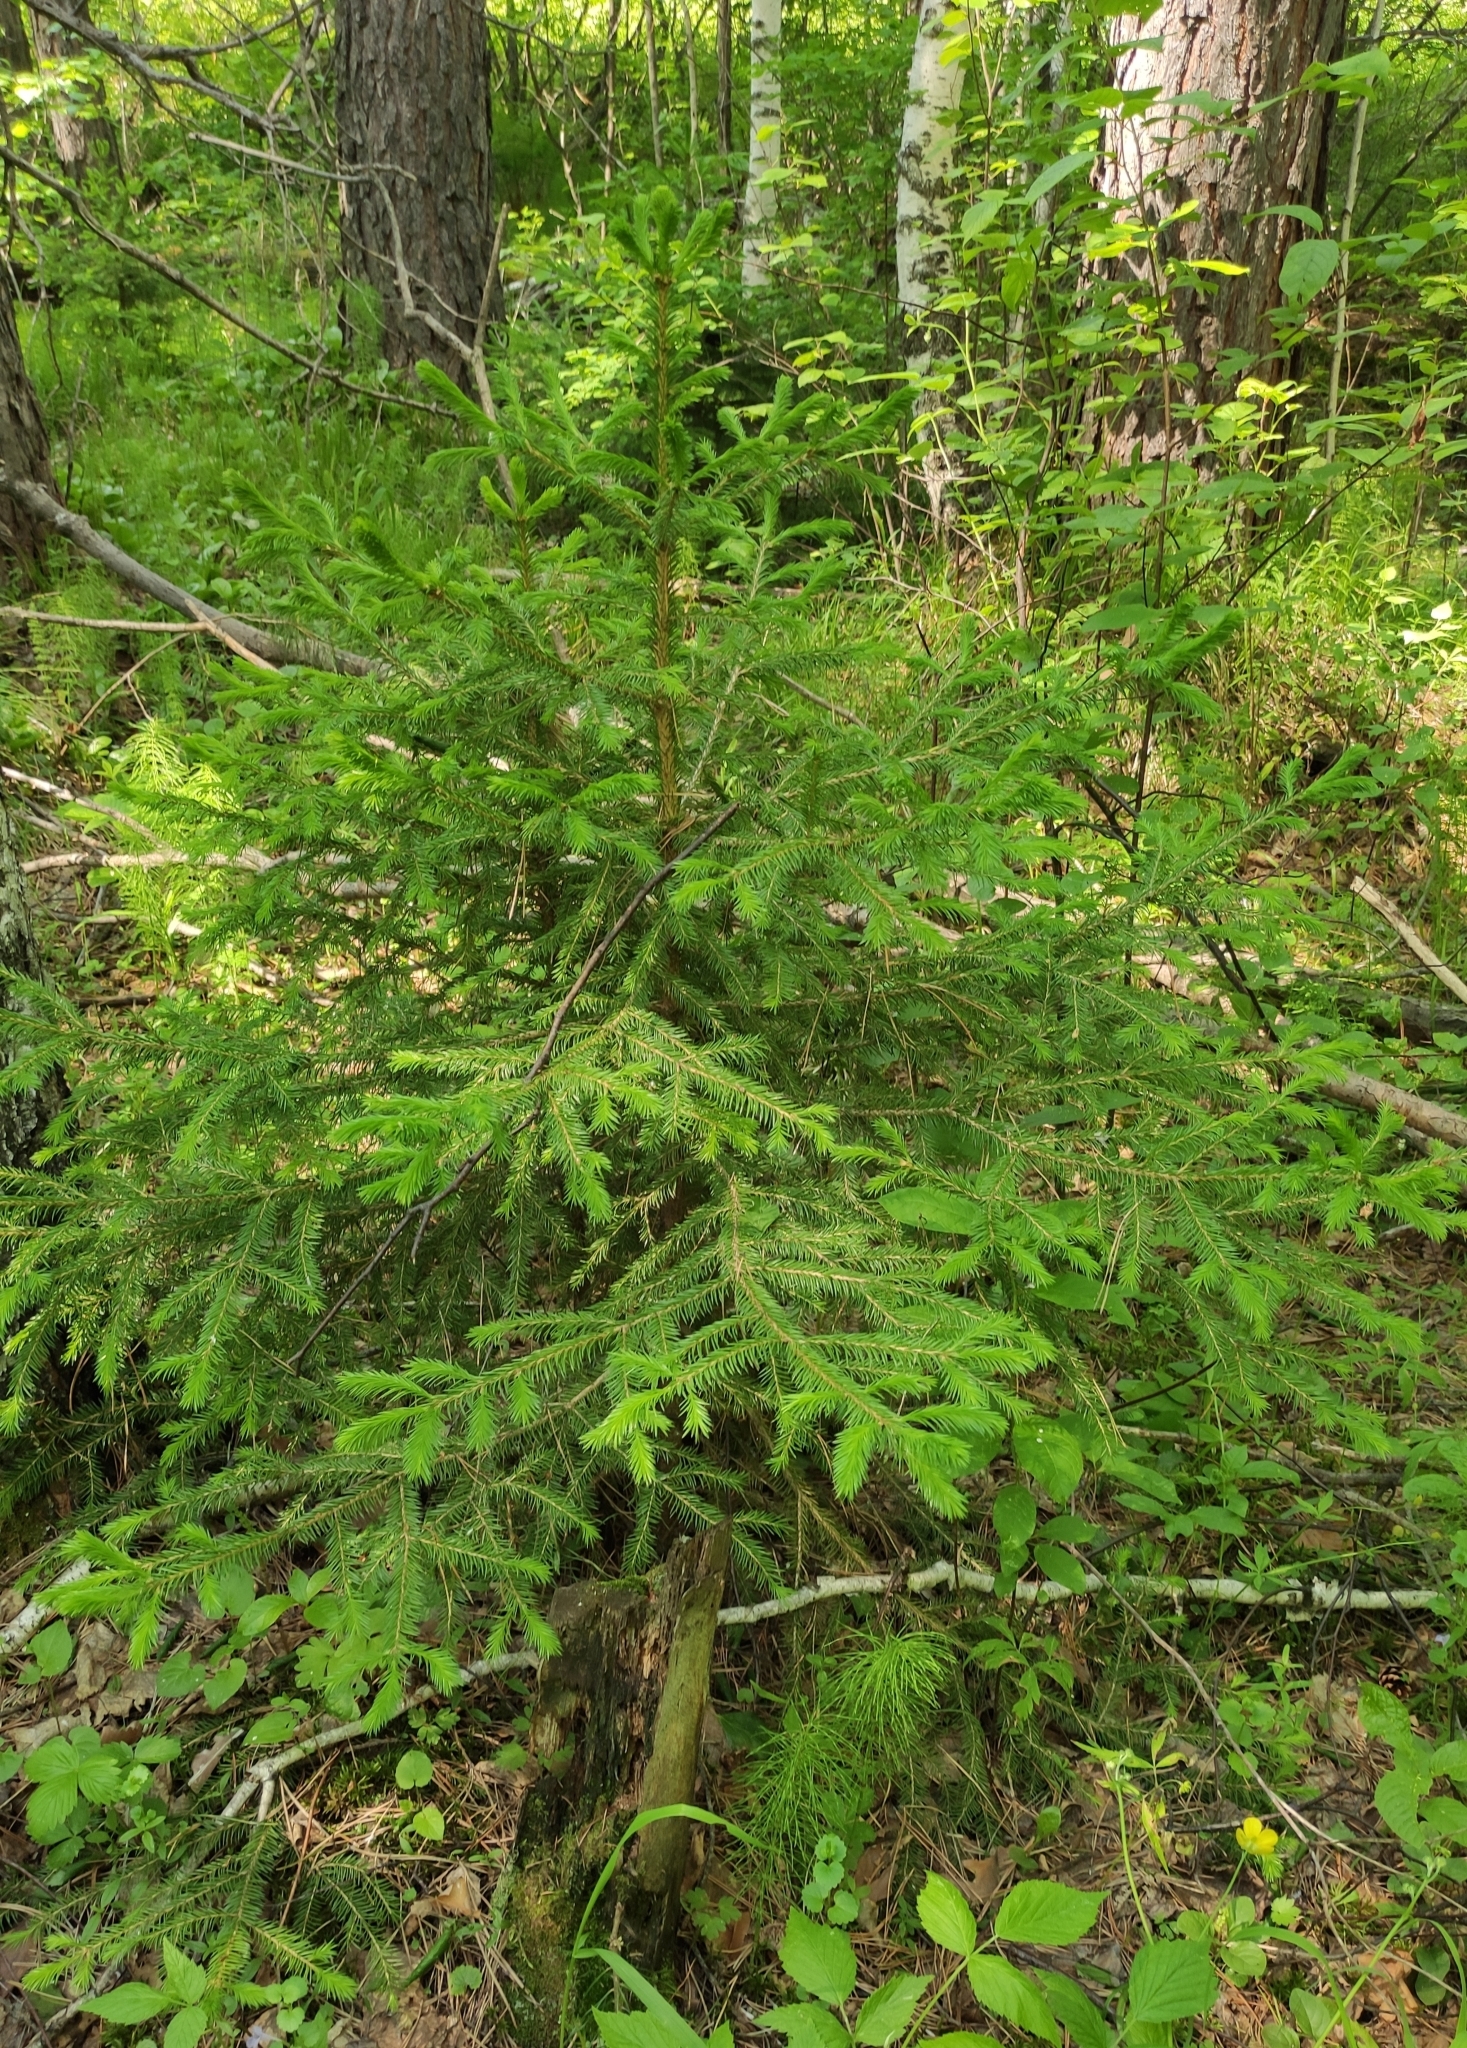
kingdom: Plantae
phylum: Tracheophyta
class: Pinopsida
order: Pinales
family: Pinaceae
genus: Picea
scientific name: Picea obovata
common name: Siberian spruce
